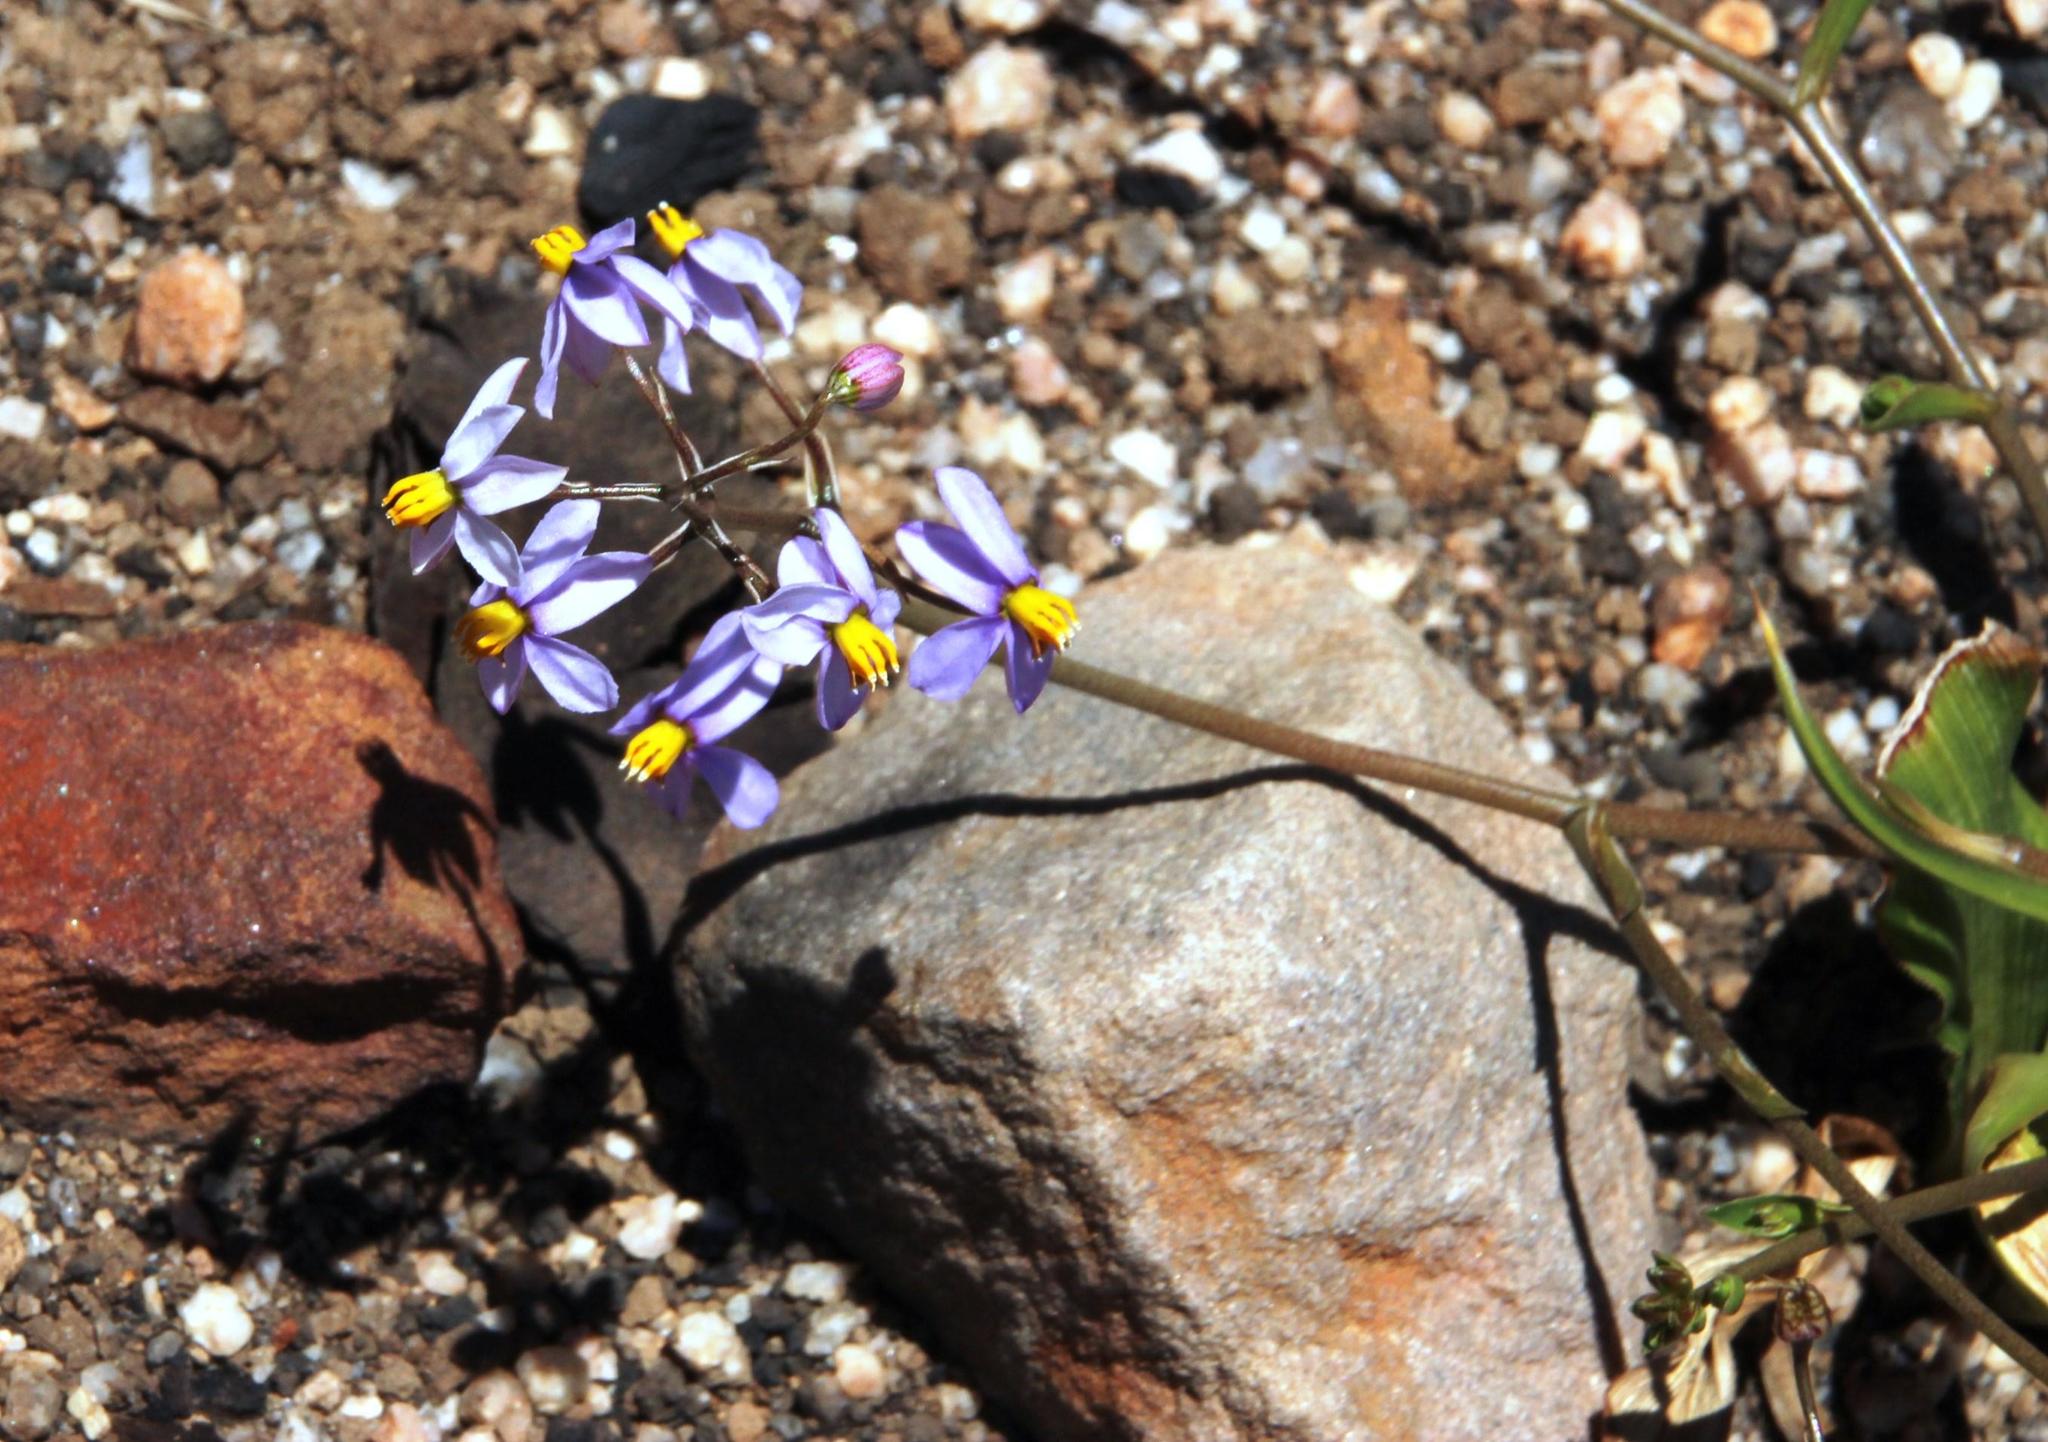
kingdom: Plantae
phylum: Tracheophyta
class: Liliopsida
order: Asparagales
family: Tecophilaeaceae
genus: Cyanella
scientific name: Cyanella hyacinthoides
